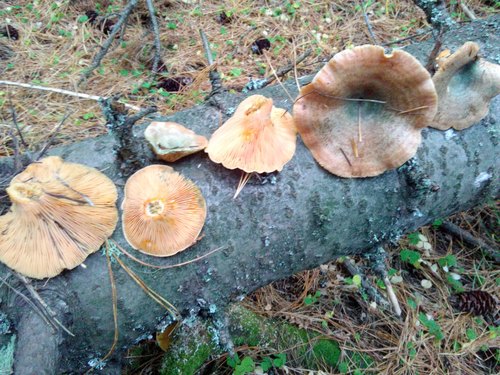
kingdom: Fungi
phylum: Basidiomycota
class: Agaricomycetes
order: Russulales
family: Russulaceae
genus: Lactarius
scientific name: Lactarius deterrimus
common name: False saffron milkcap
